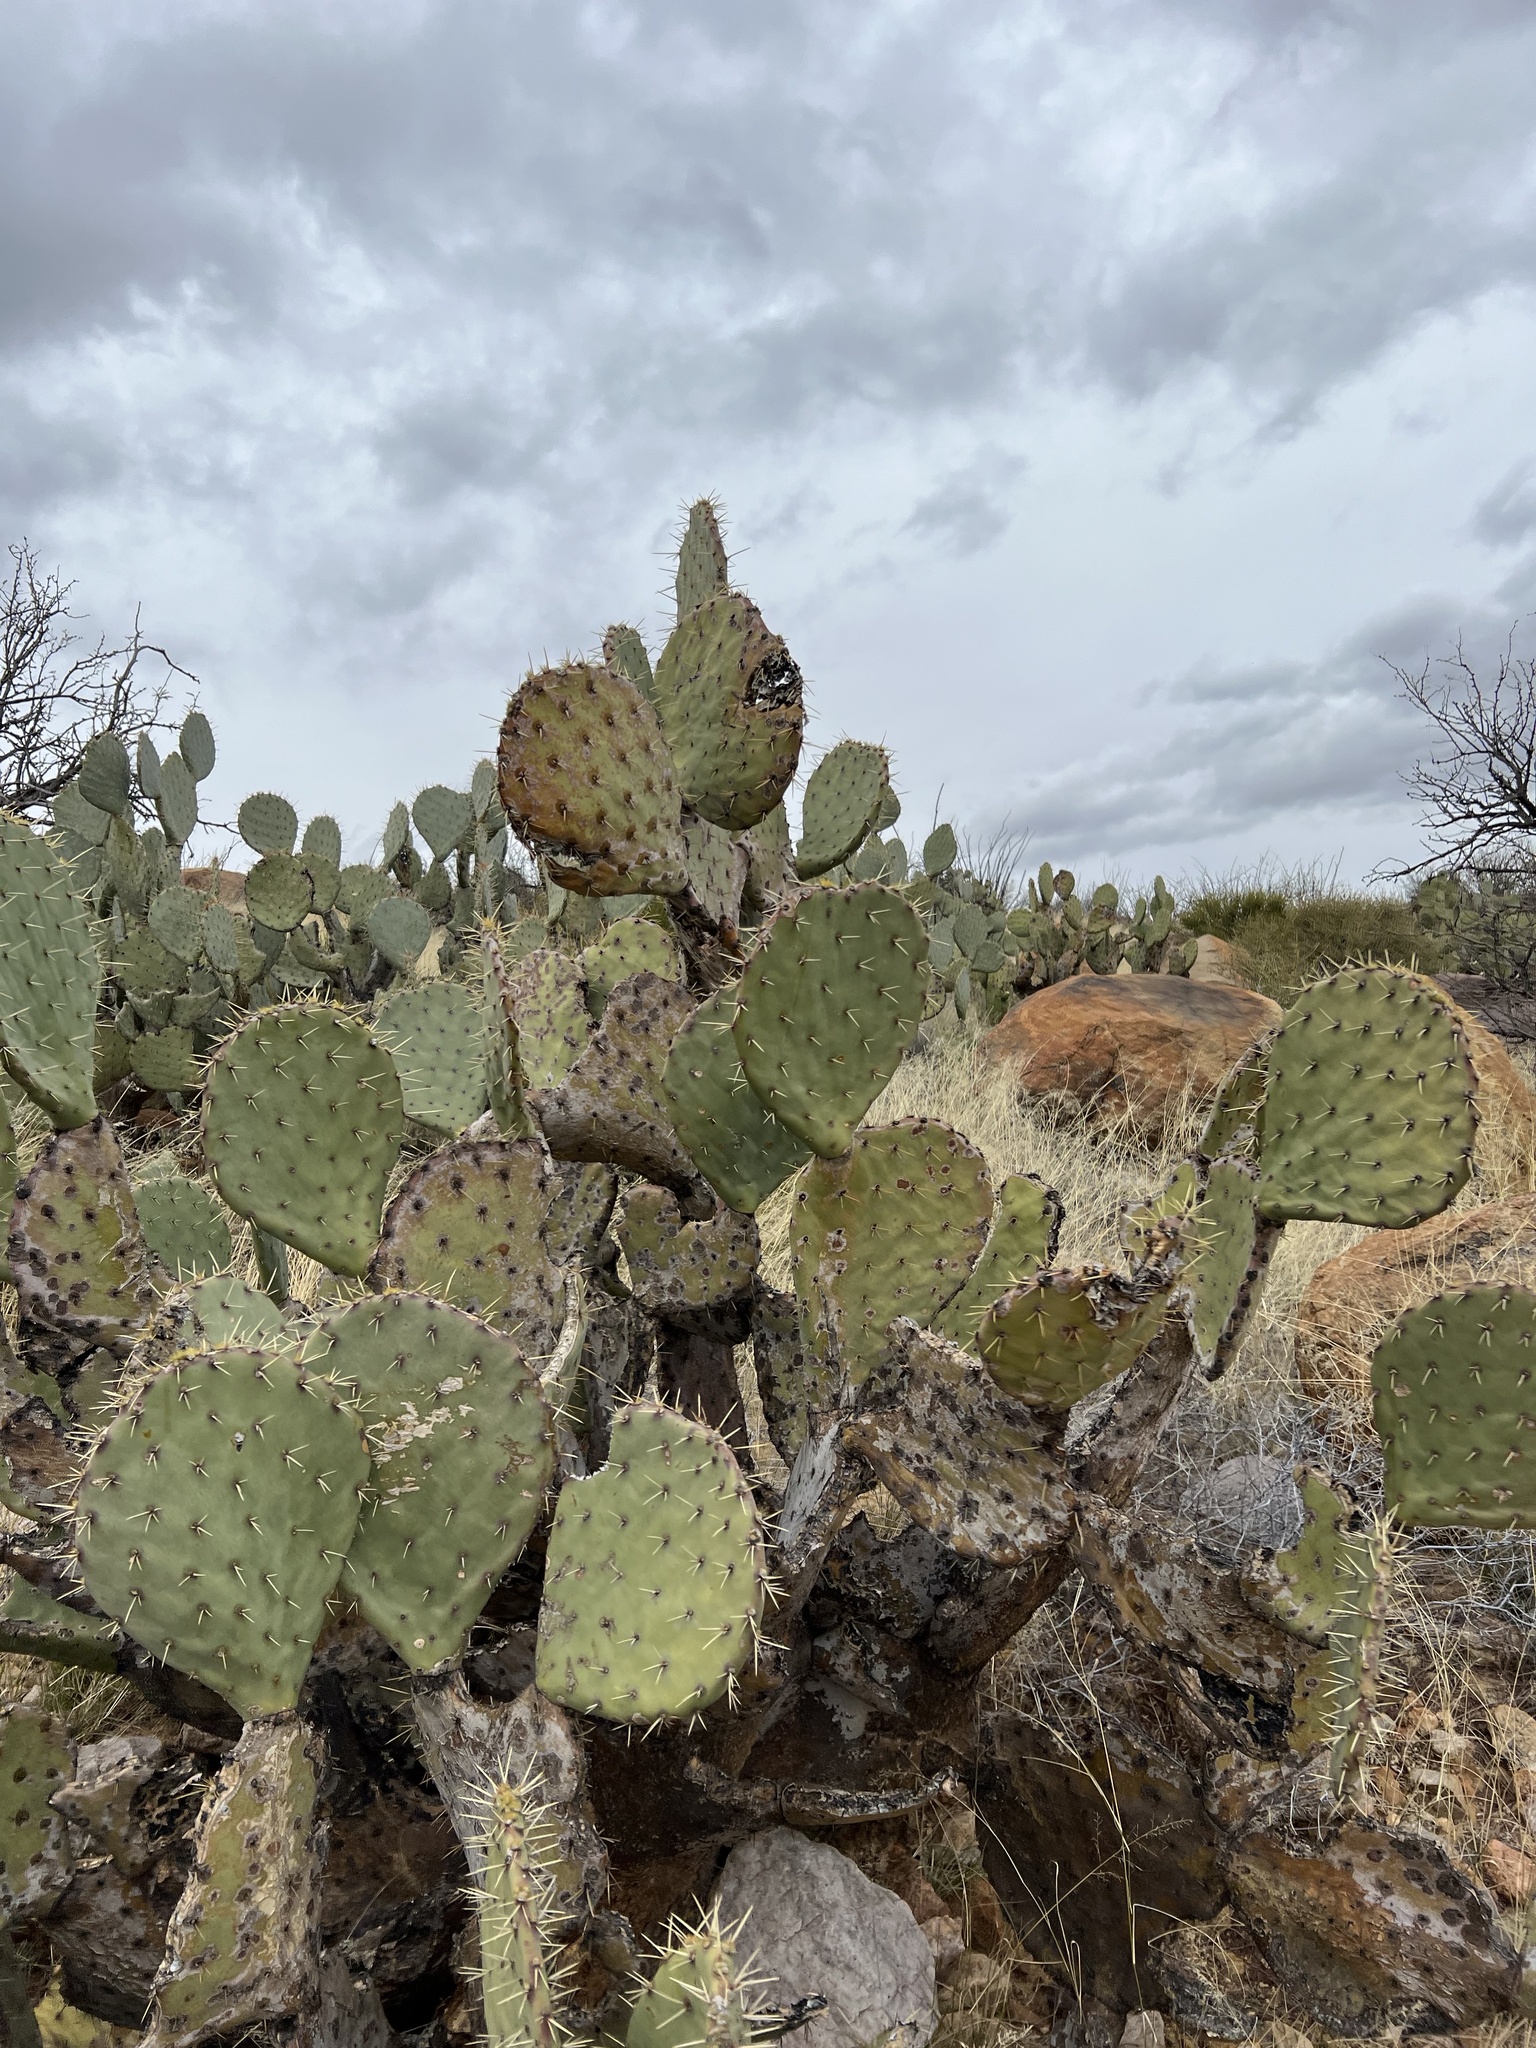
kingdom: Plantae
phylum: Tracheophyta
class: Magnoliopsida
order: Caryophyllales
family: Cactaceae
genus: Opuntia
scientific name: Opuntia engelmannii
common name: Cactus-apple
